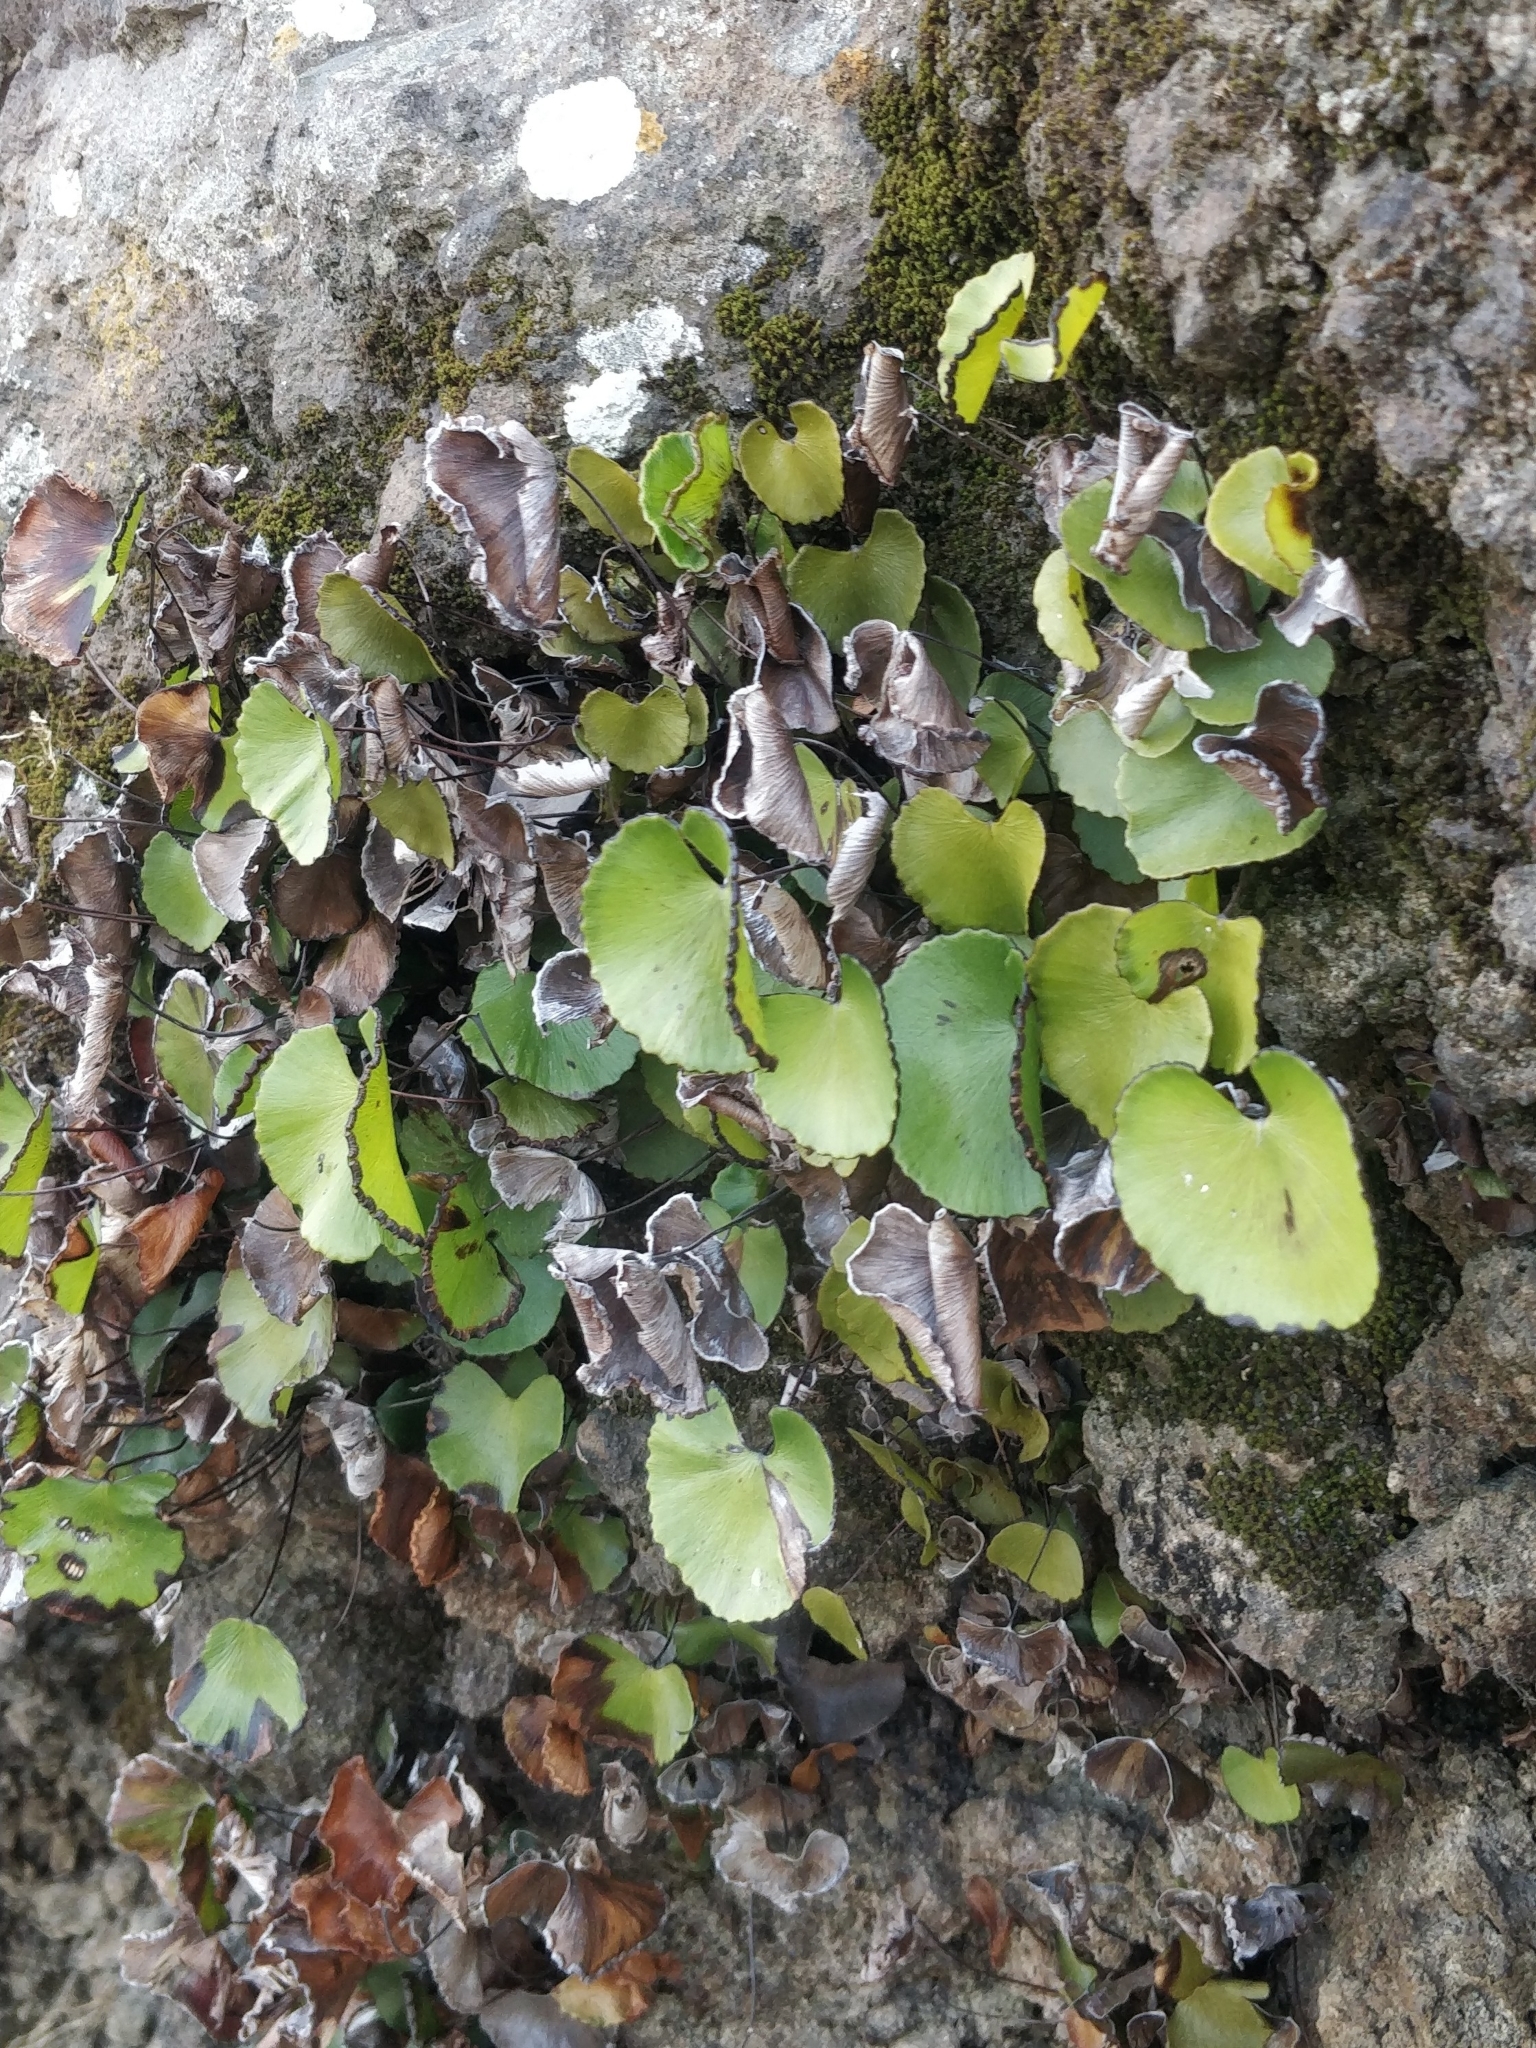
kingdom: Plantae
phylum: Tracheophyta
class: Polypodiopsida
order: Polypodiales
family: Pteridaceae
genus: Adiantum
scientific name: Adiantum reniforme
